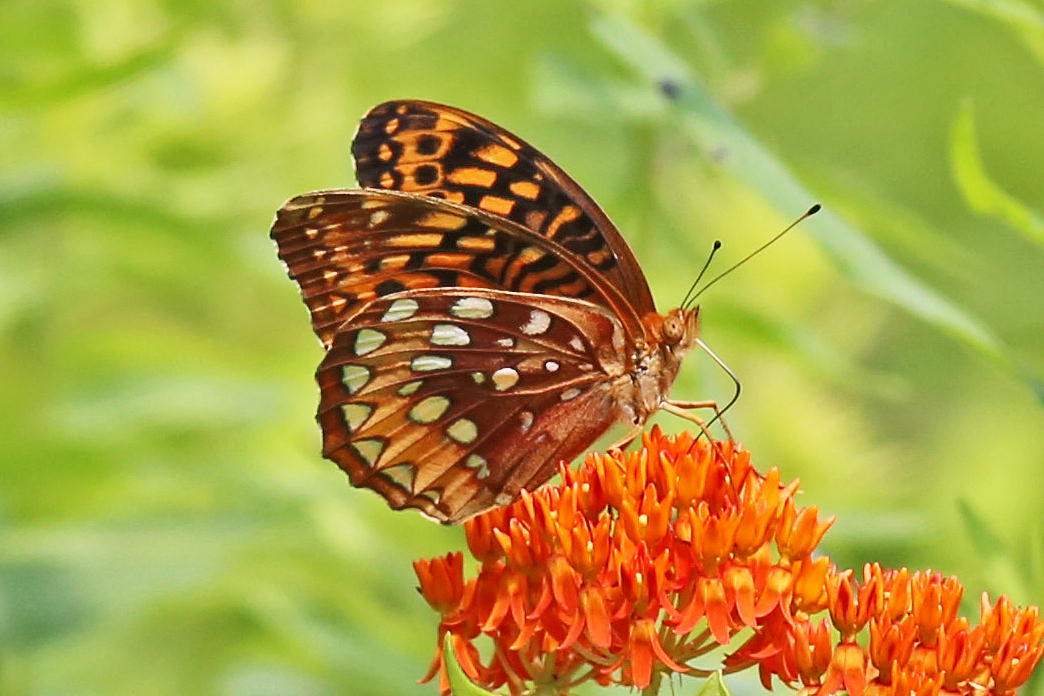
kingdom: Animalia
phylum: Arthropoda
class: Insecta
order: Lepidoptera
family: Nymphalidae
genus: Speyeria
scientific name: Speyeria cybele
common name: Great spangled fritillary
